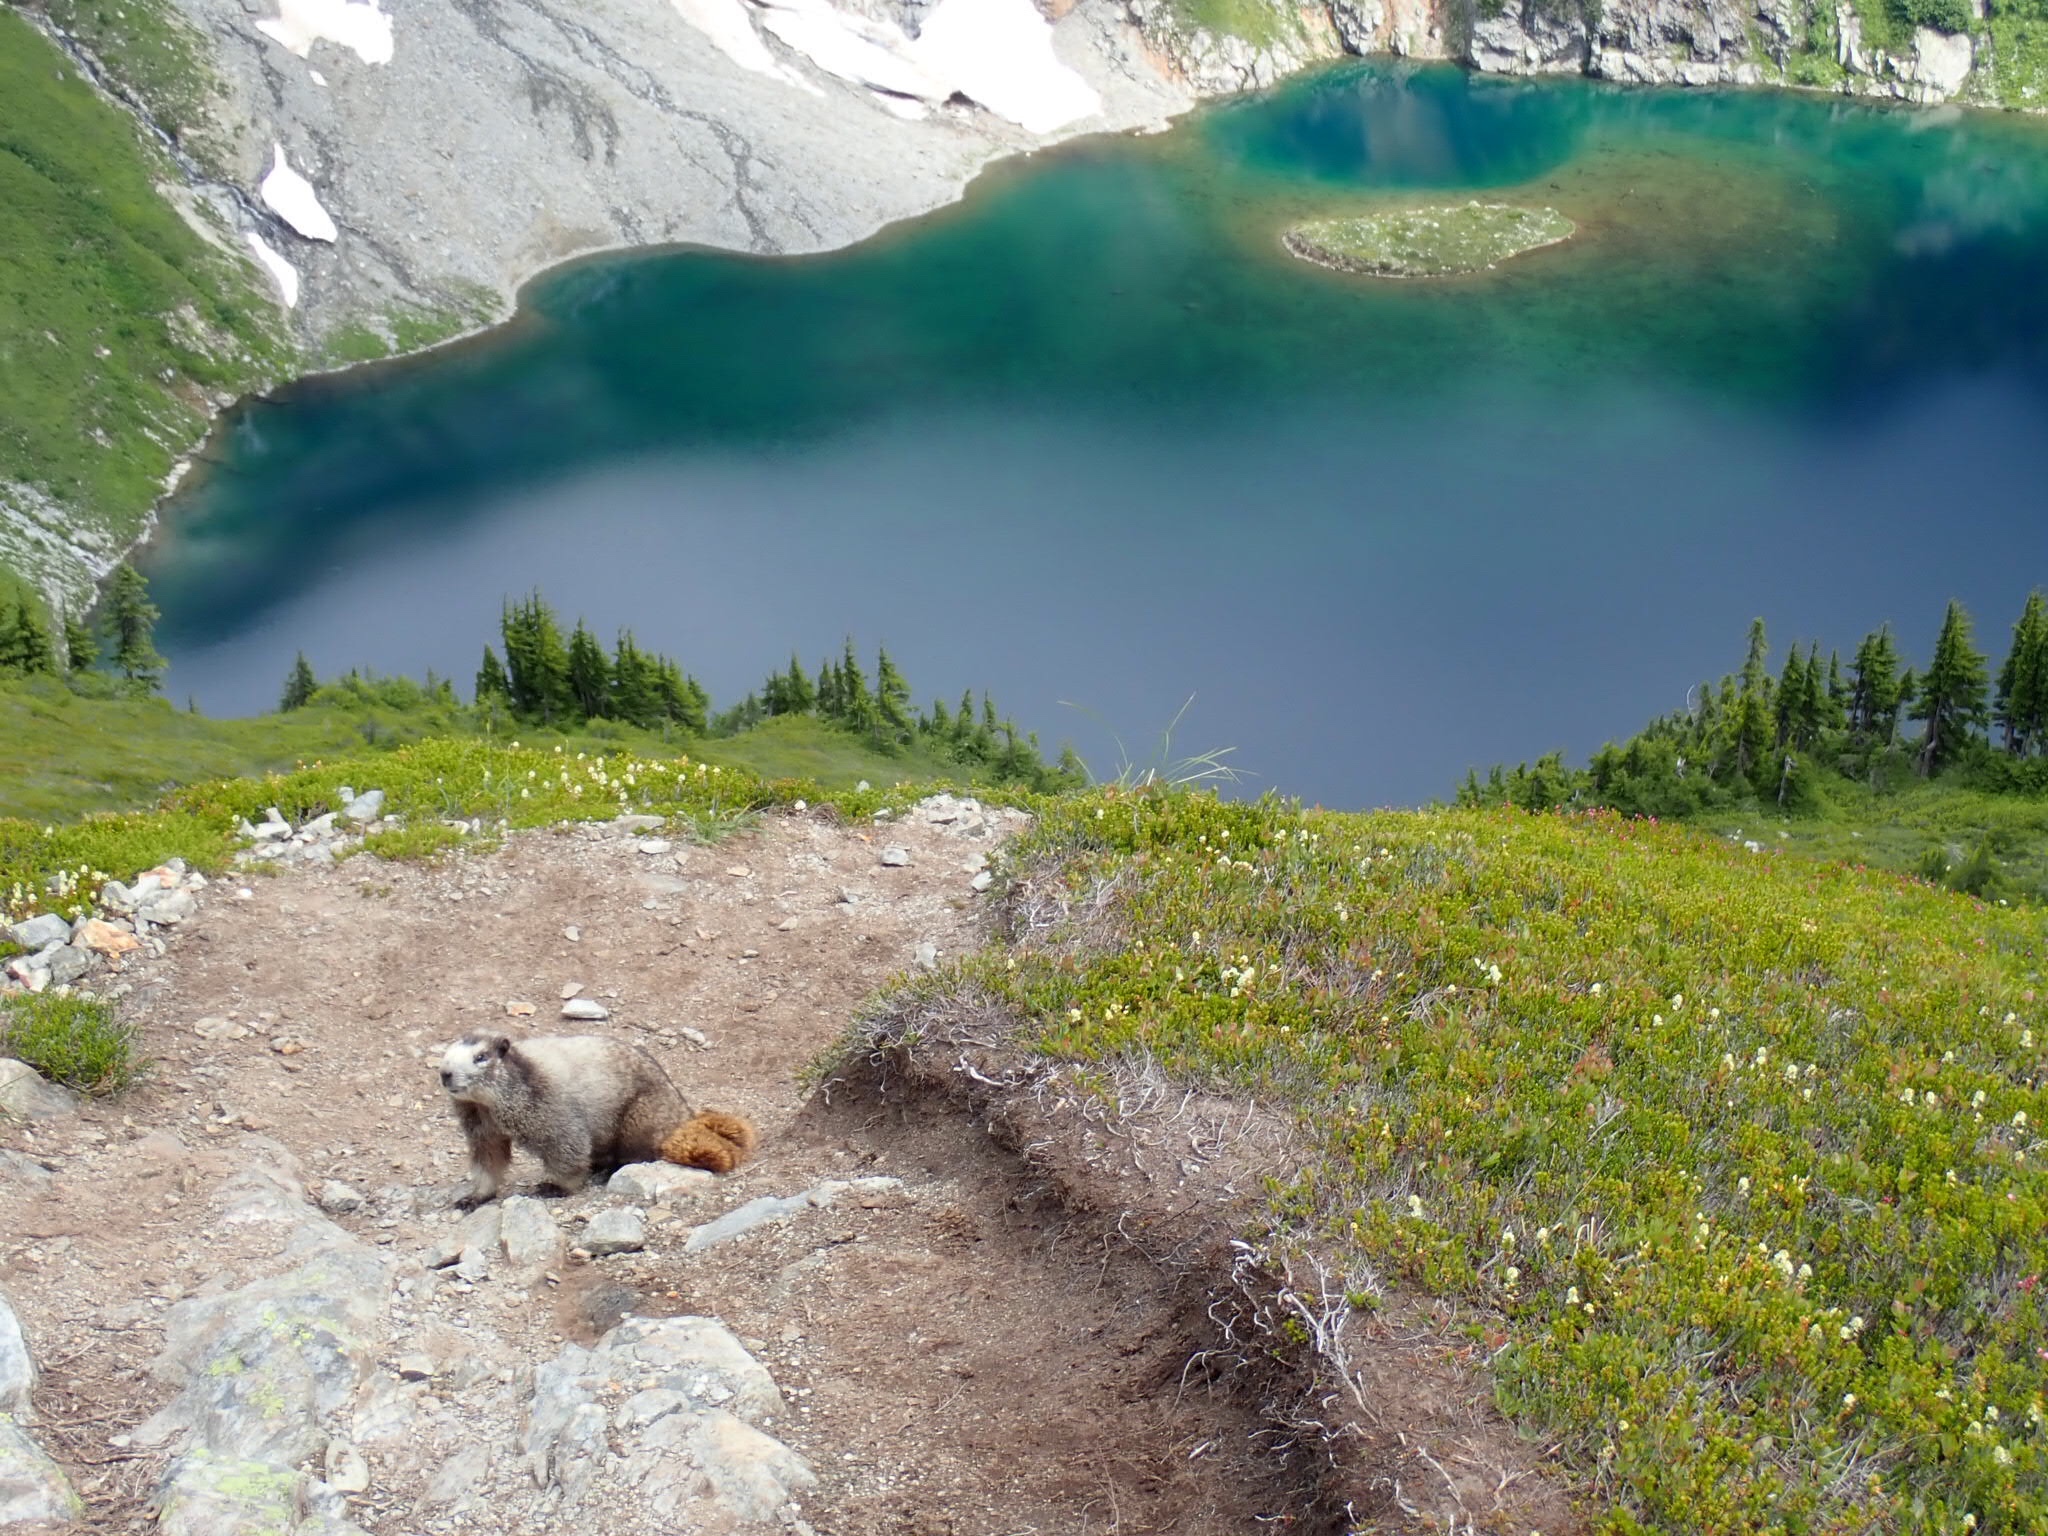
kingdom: Animalia
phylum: Chordata
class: Mammalia
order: Rodentia
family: Sciuridae
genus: Marmota
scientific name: Marmota caligata
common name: Hoary marmot
